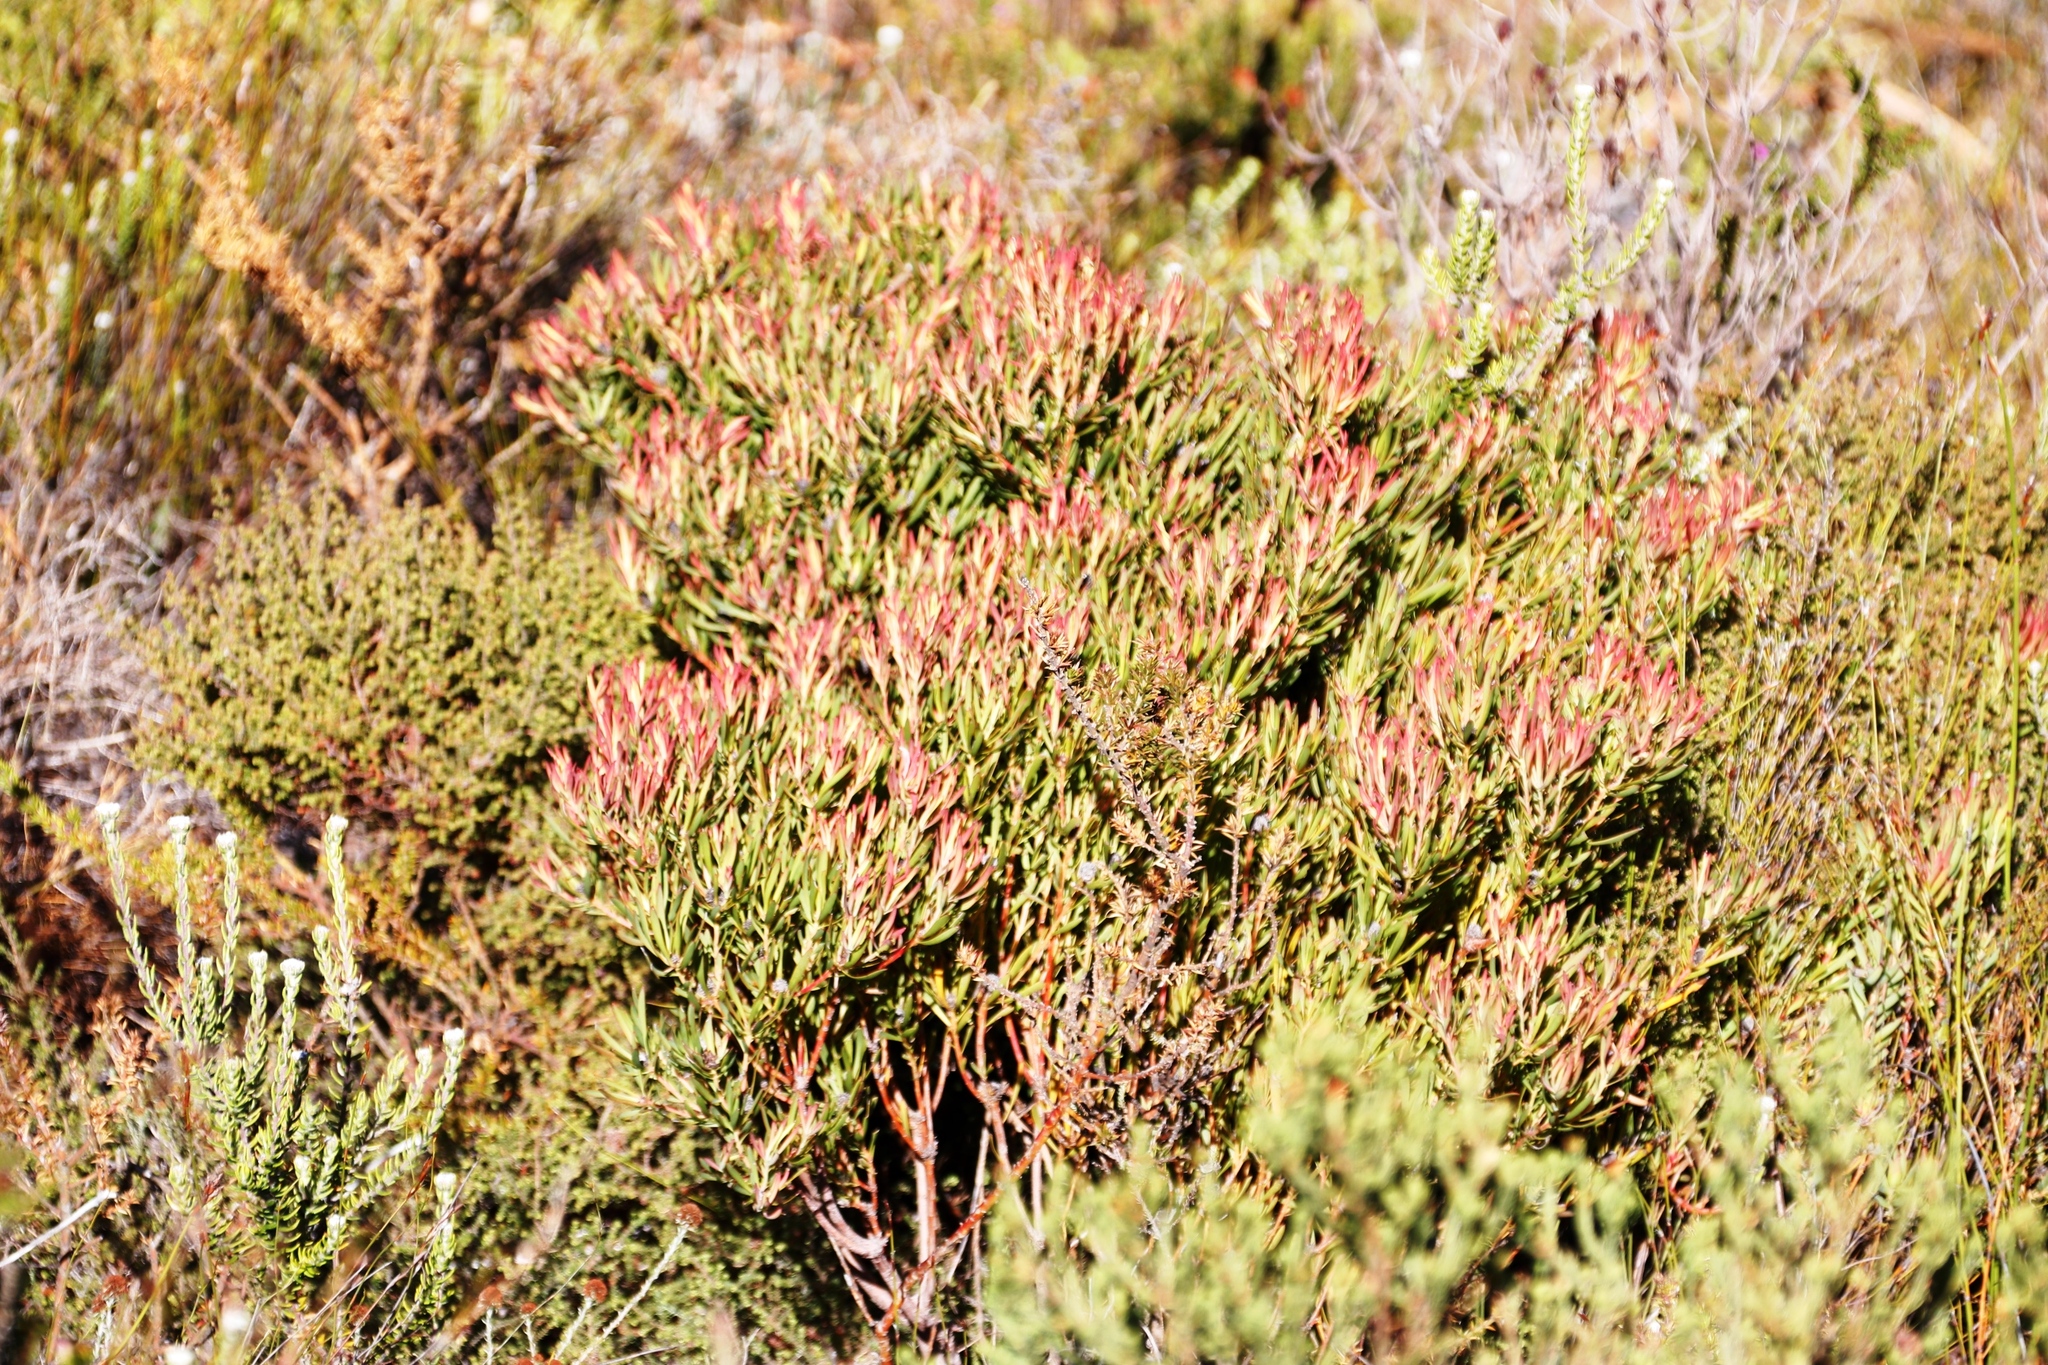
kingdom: Plantae
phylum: Tracheophyta
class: Magnoliopsida
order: Proteales
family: Proteaceae
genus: Leucadendron
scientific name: Leucadendron salignum
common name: Common sunshine conebush
